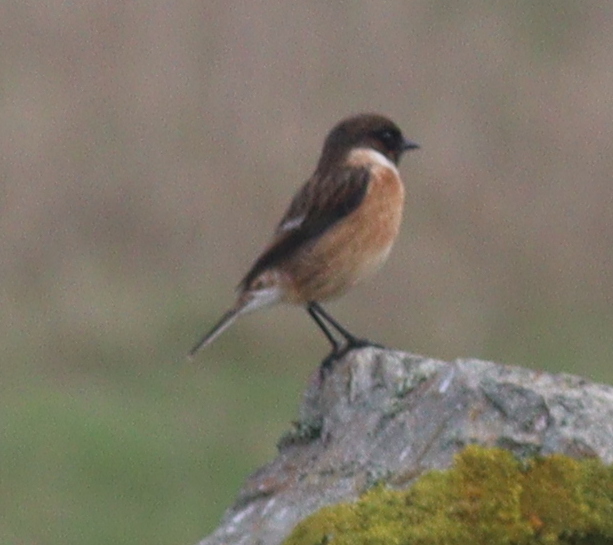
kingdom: Animalia
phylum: Chordata
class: Aves
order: Passeriformes
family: Muscicapidae
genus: Saxicola
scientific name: Saxicola rubicola
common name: European stonechat
